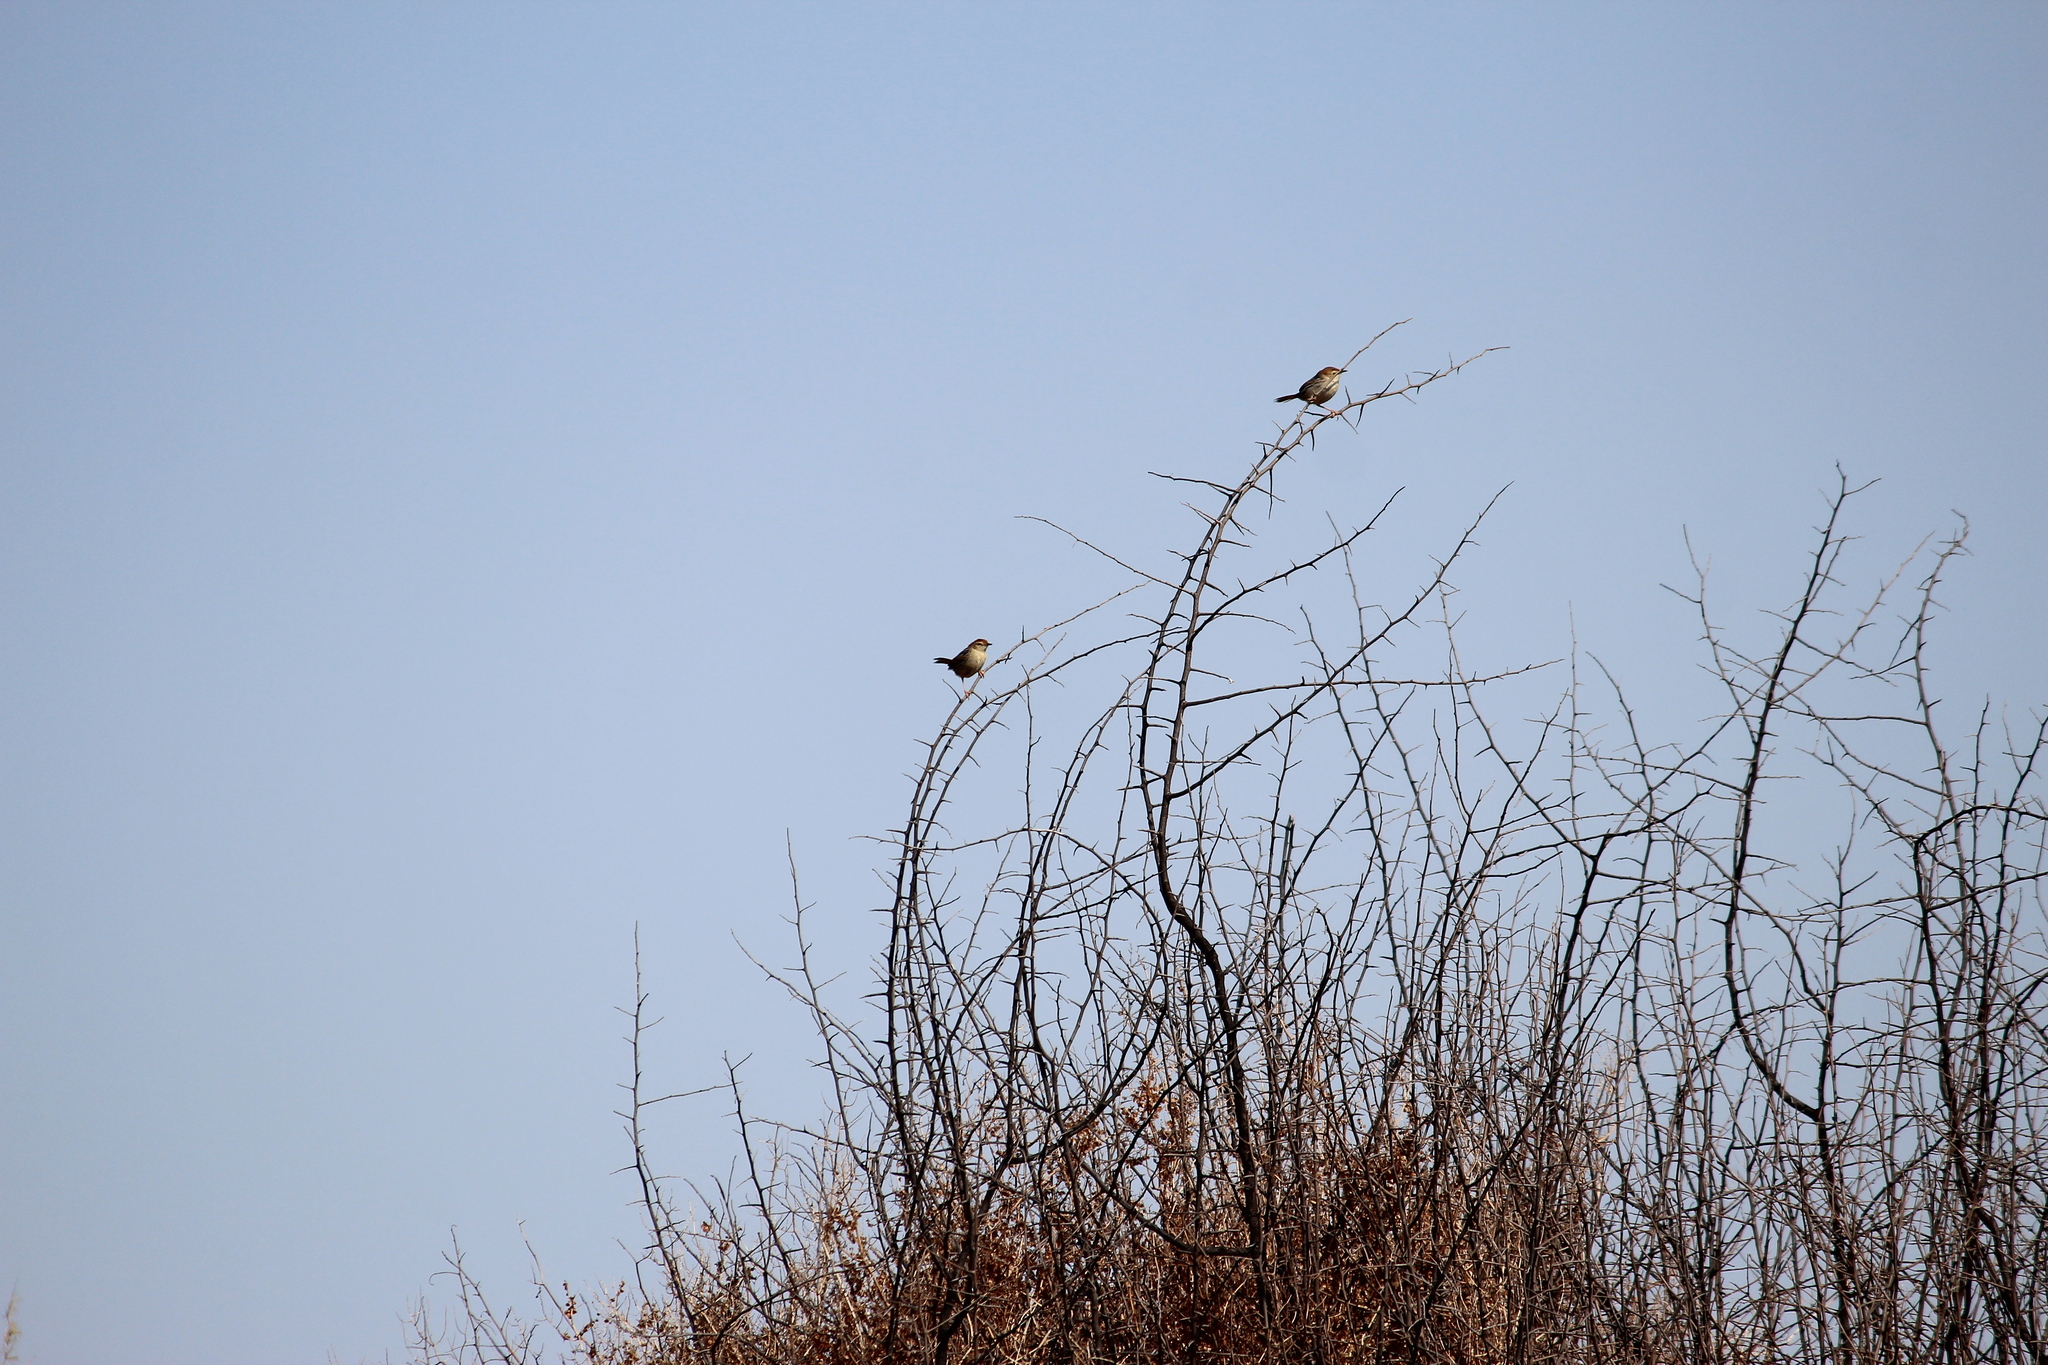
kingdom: Animalia
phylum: Chordata
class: Aves
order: Passeriformes
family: Cisticolidae
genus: Cisticola
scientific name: Cisticola tinniens
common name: Levaillant's cisticola
